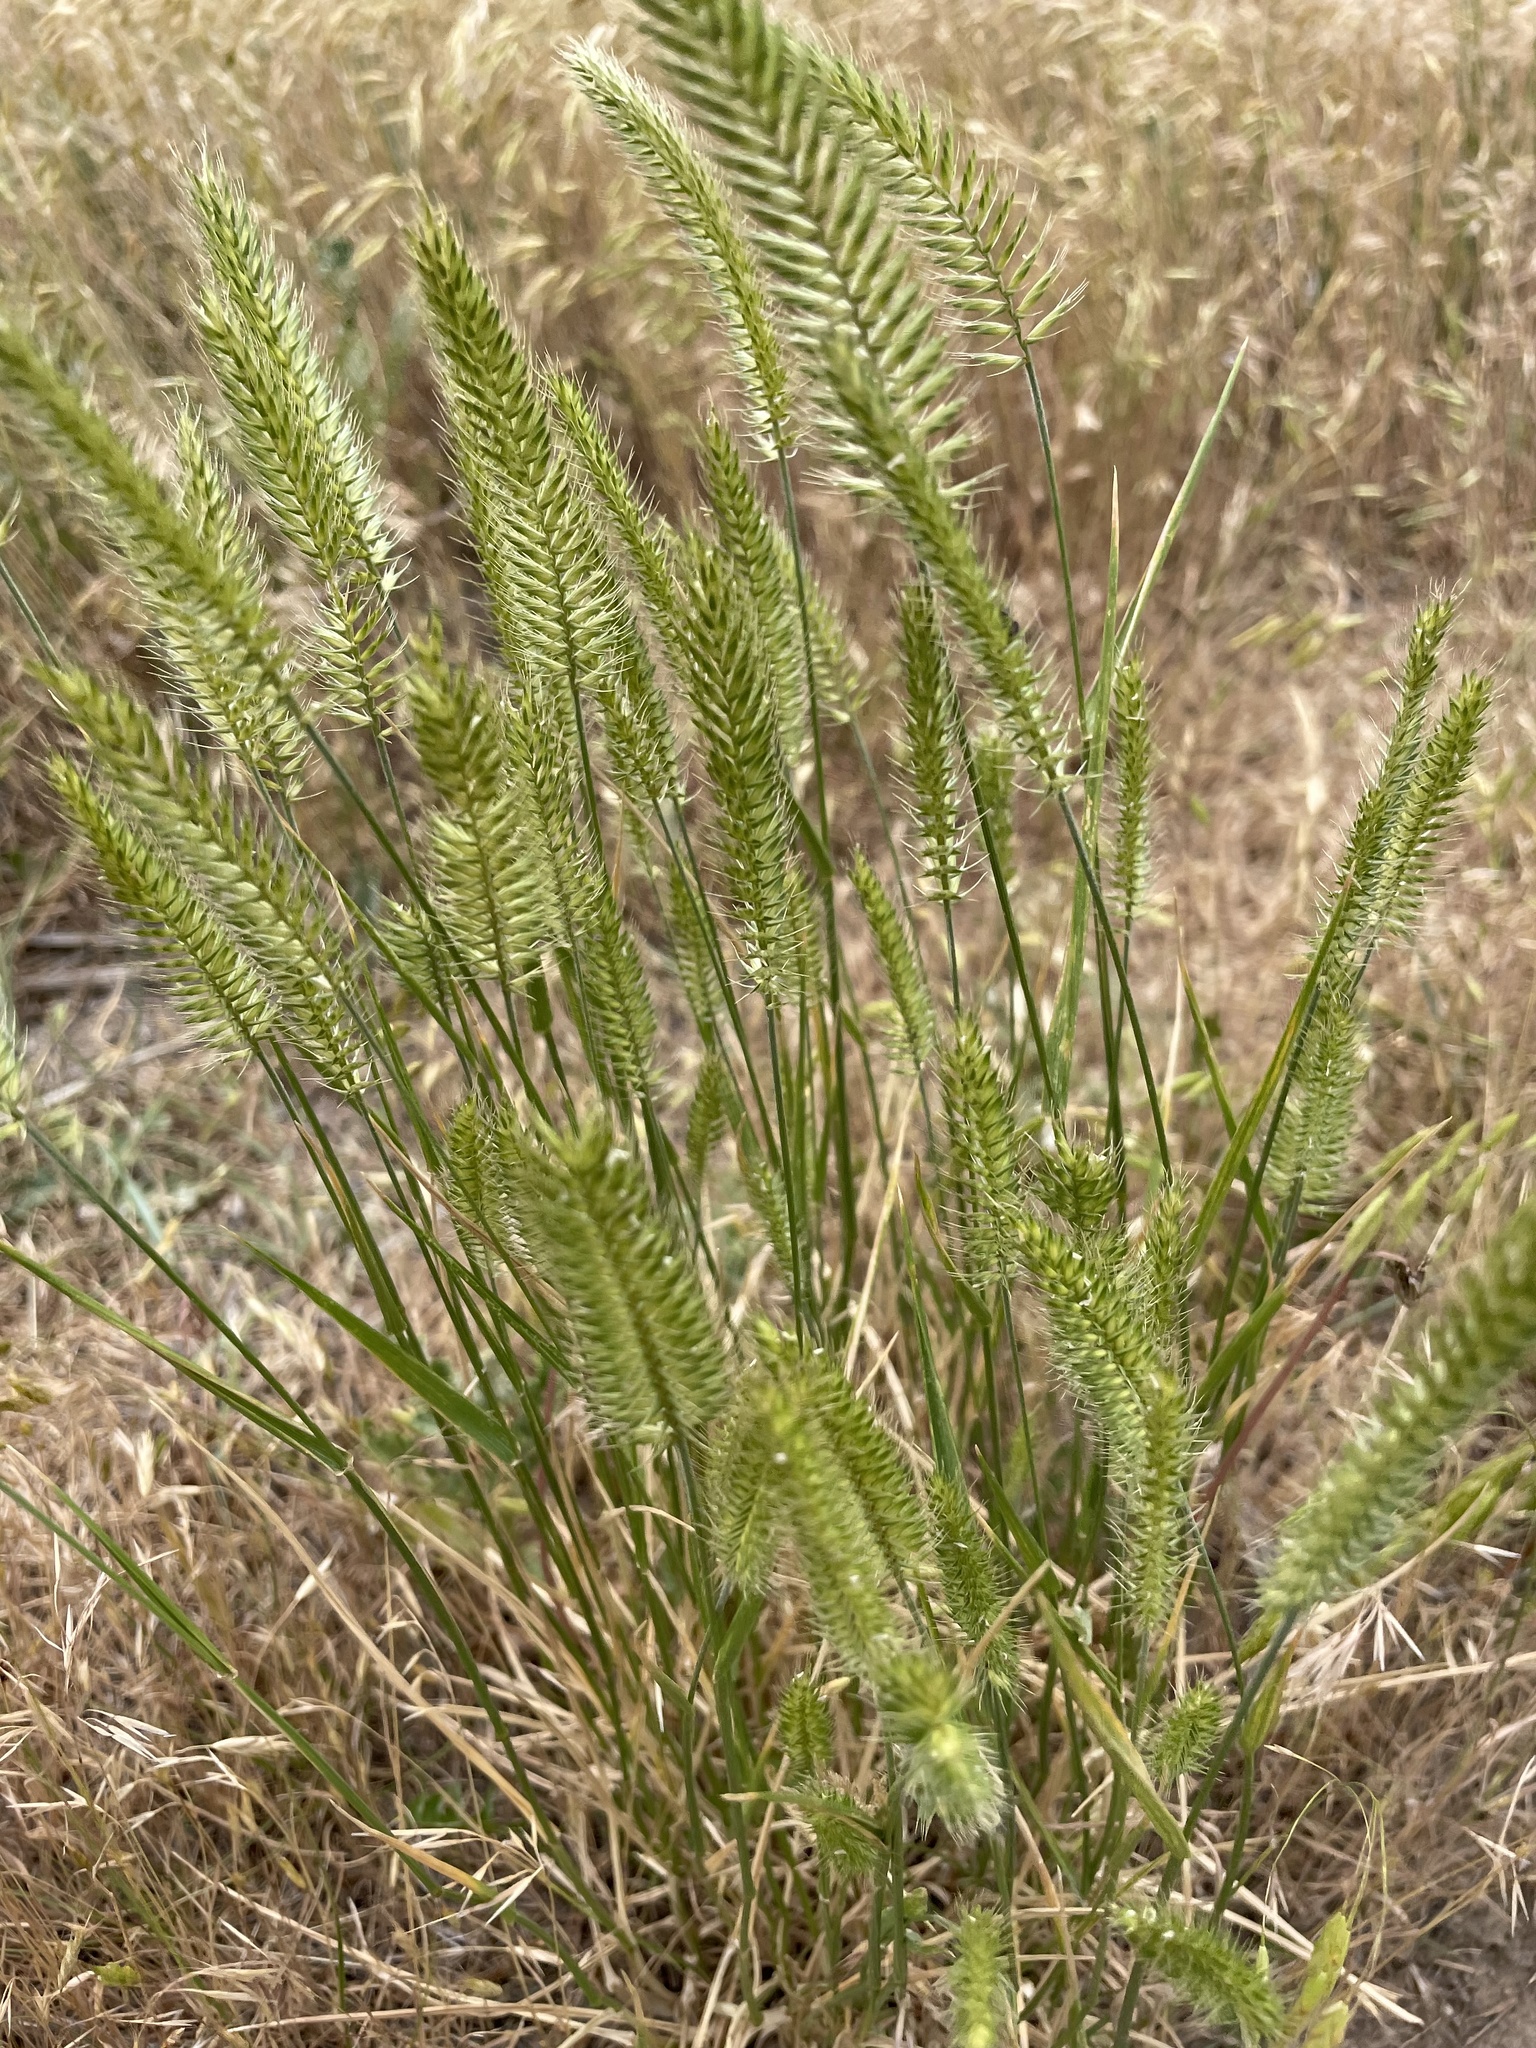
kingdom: Plantae
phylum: Tracheophyta
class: Liliopsida
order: Poales
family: Poaceae
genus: Agropyron
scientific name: Agropyron cristatum
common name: Crested wheatgrass
